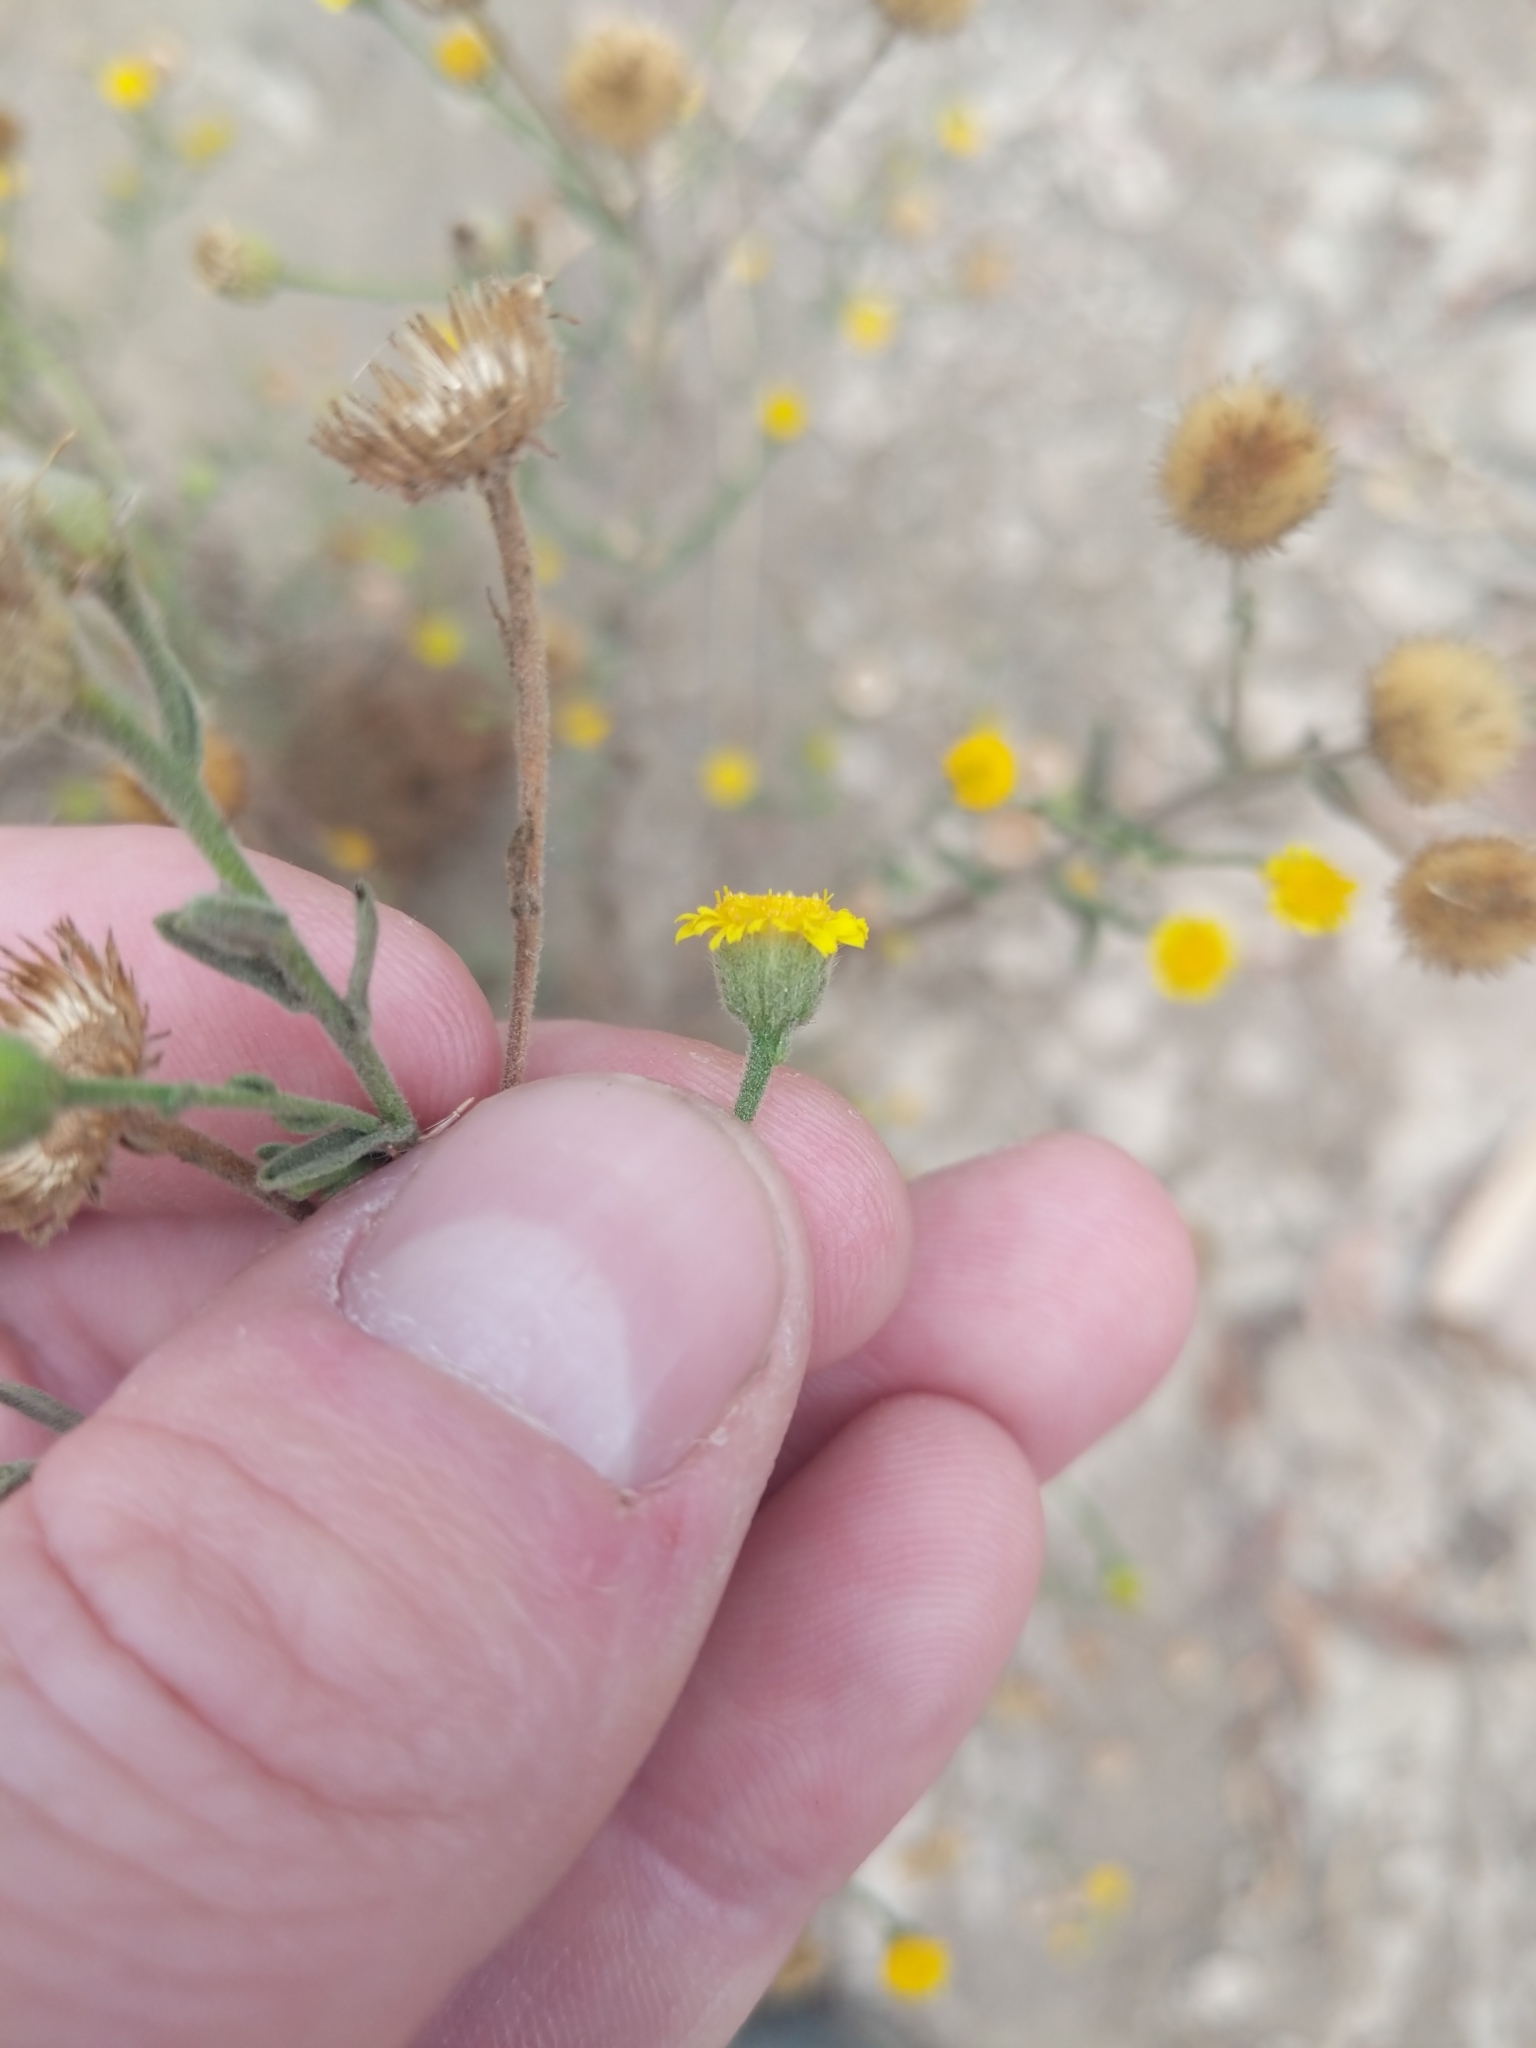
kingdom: Plantae
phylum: Tracheophyta
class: Magnoliopsida
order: Asterales
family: Asteraceae
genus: Pulicaria
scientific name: Pulicaria paludosa
